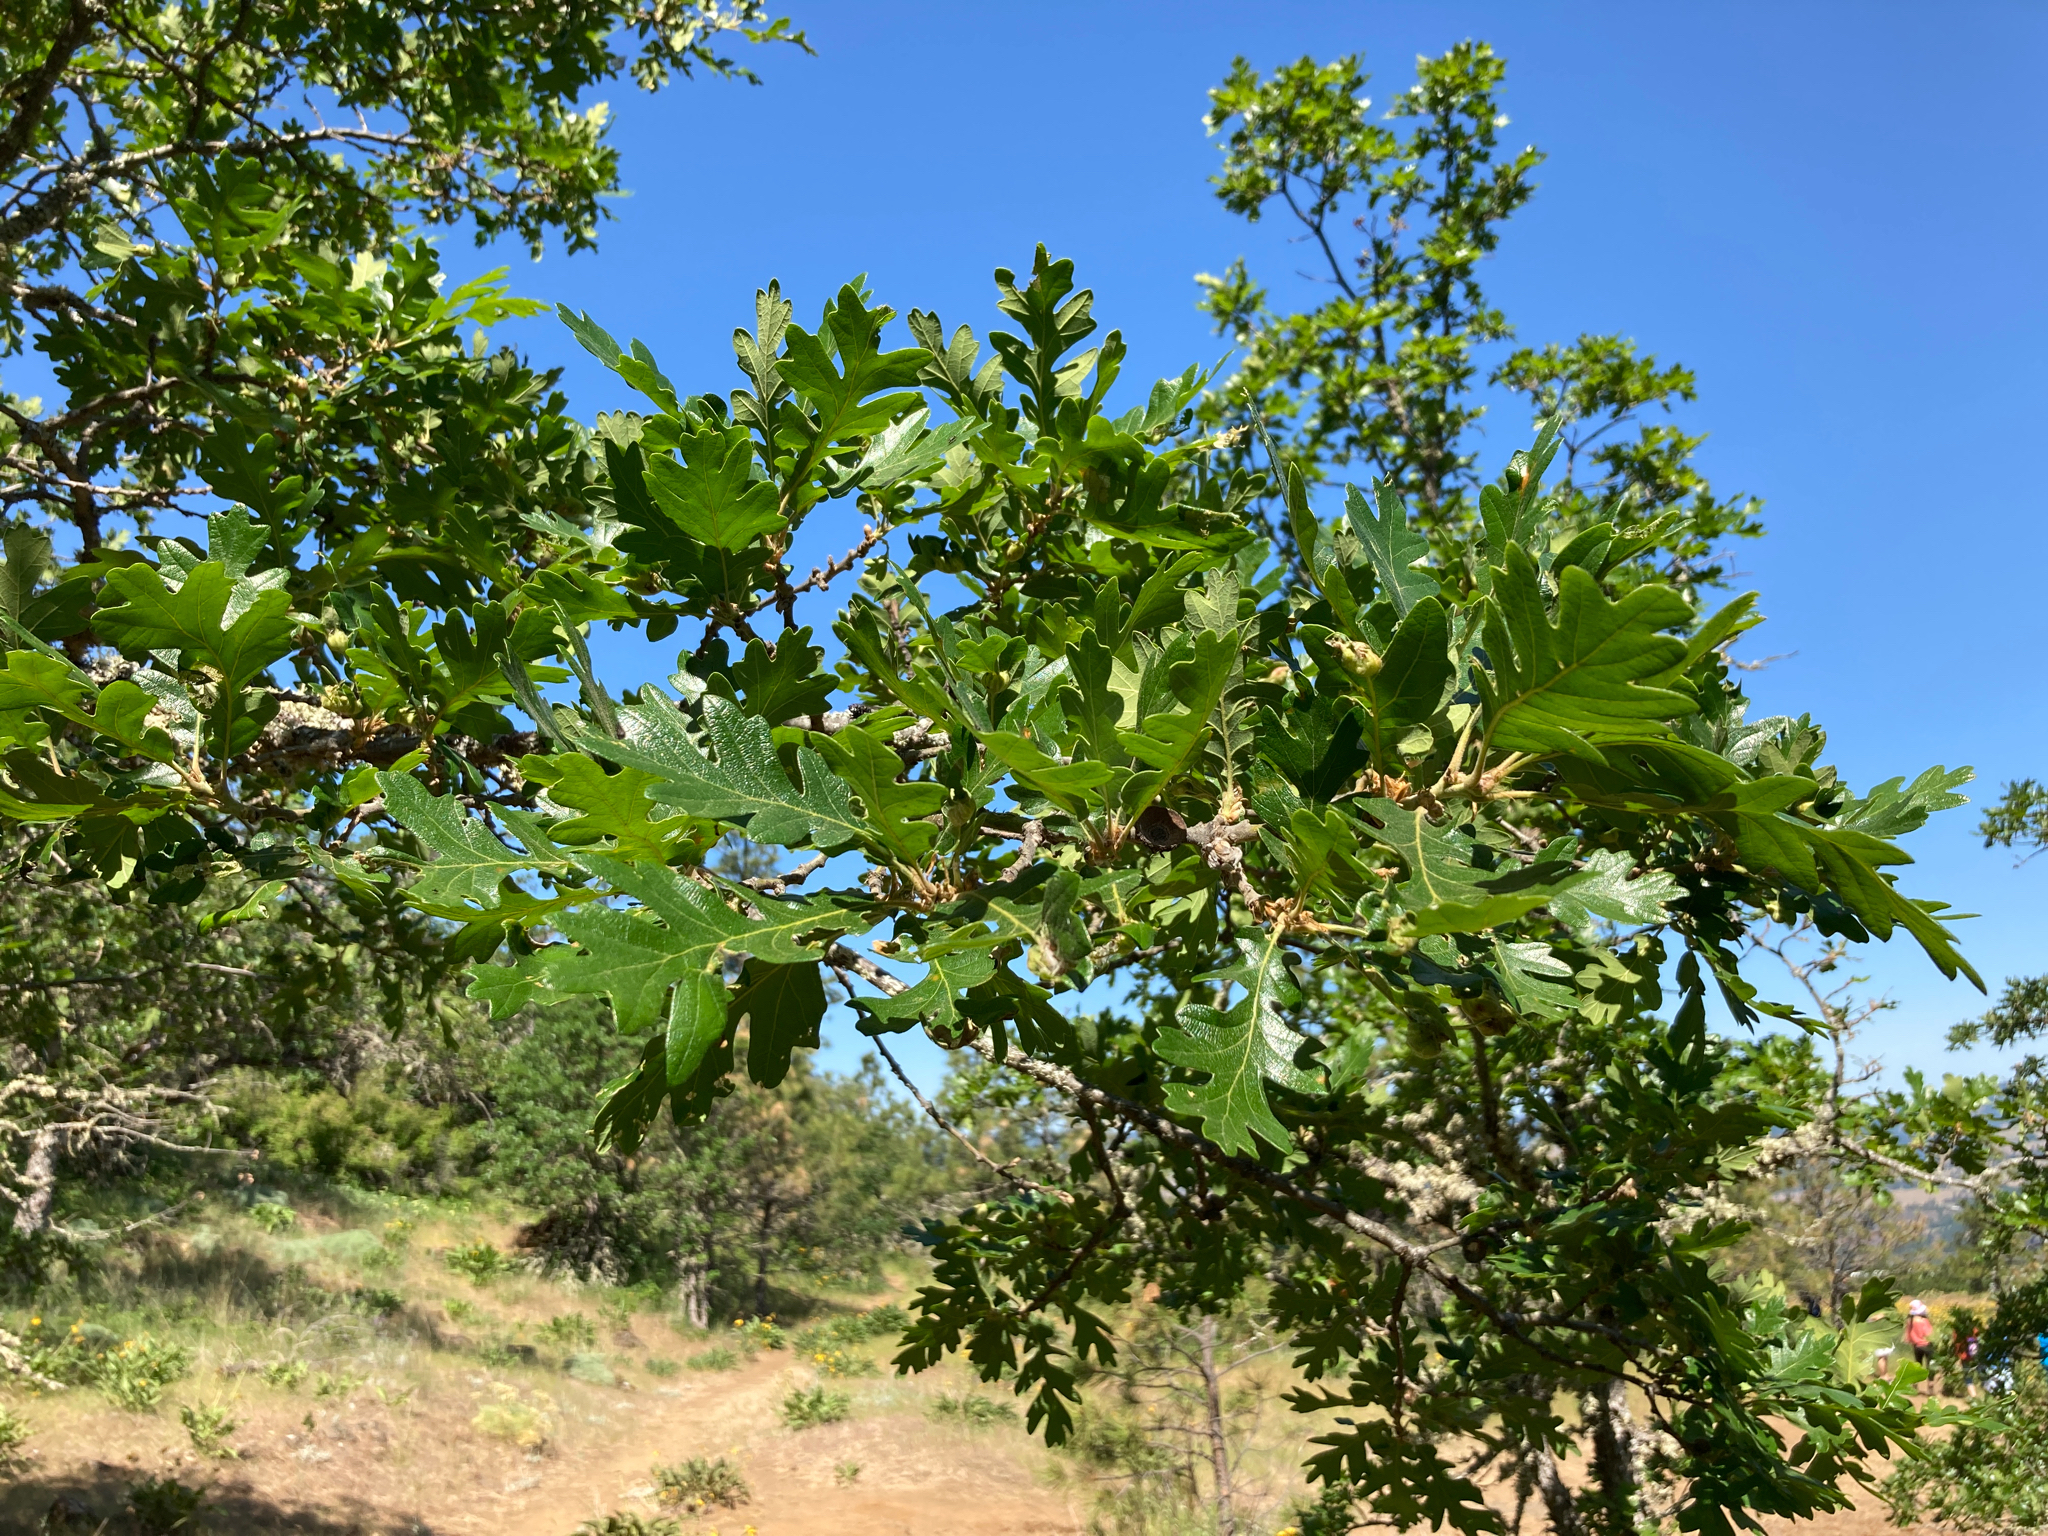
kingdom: Plantae
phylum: Tracheophyta
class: Magnoliopsida
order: Fagales
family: Fagaceae
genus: Quercus
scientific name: Quercus garryana
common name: Garry oak
